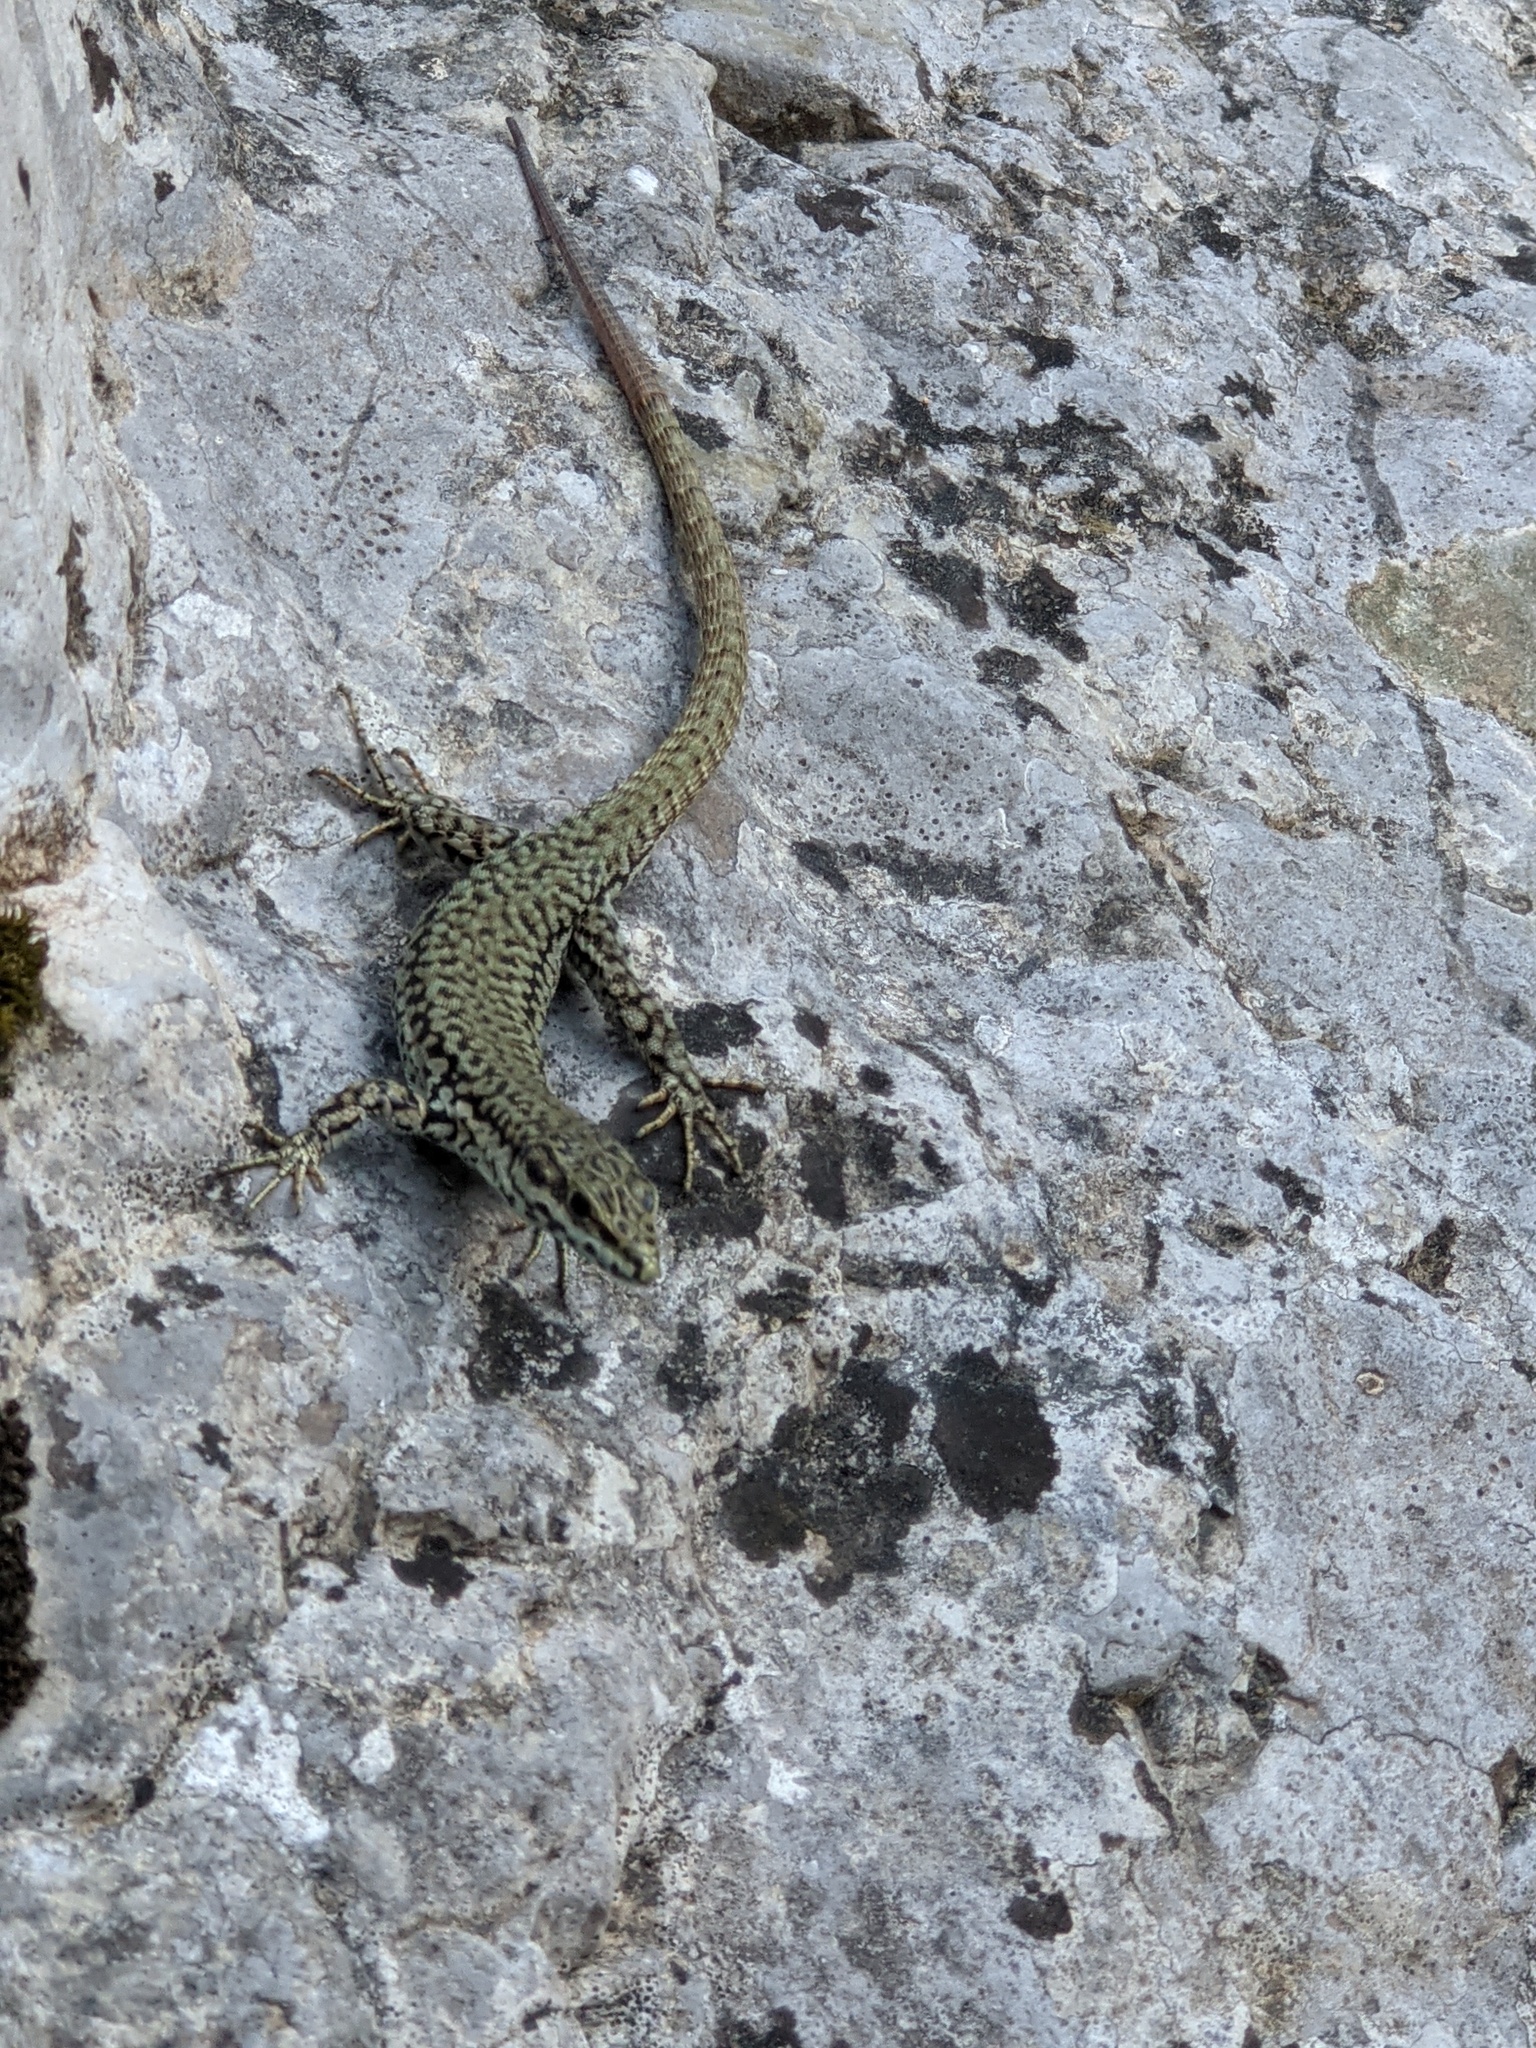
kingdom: Animalia
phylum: Chordata
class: Squamata
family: Lacertidae
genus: Podarcis
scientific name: Podarcis liolepis
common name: Catalonian wall lizard
